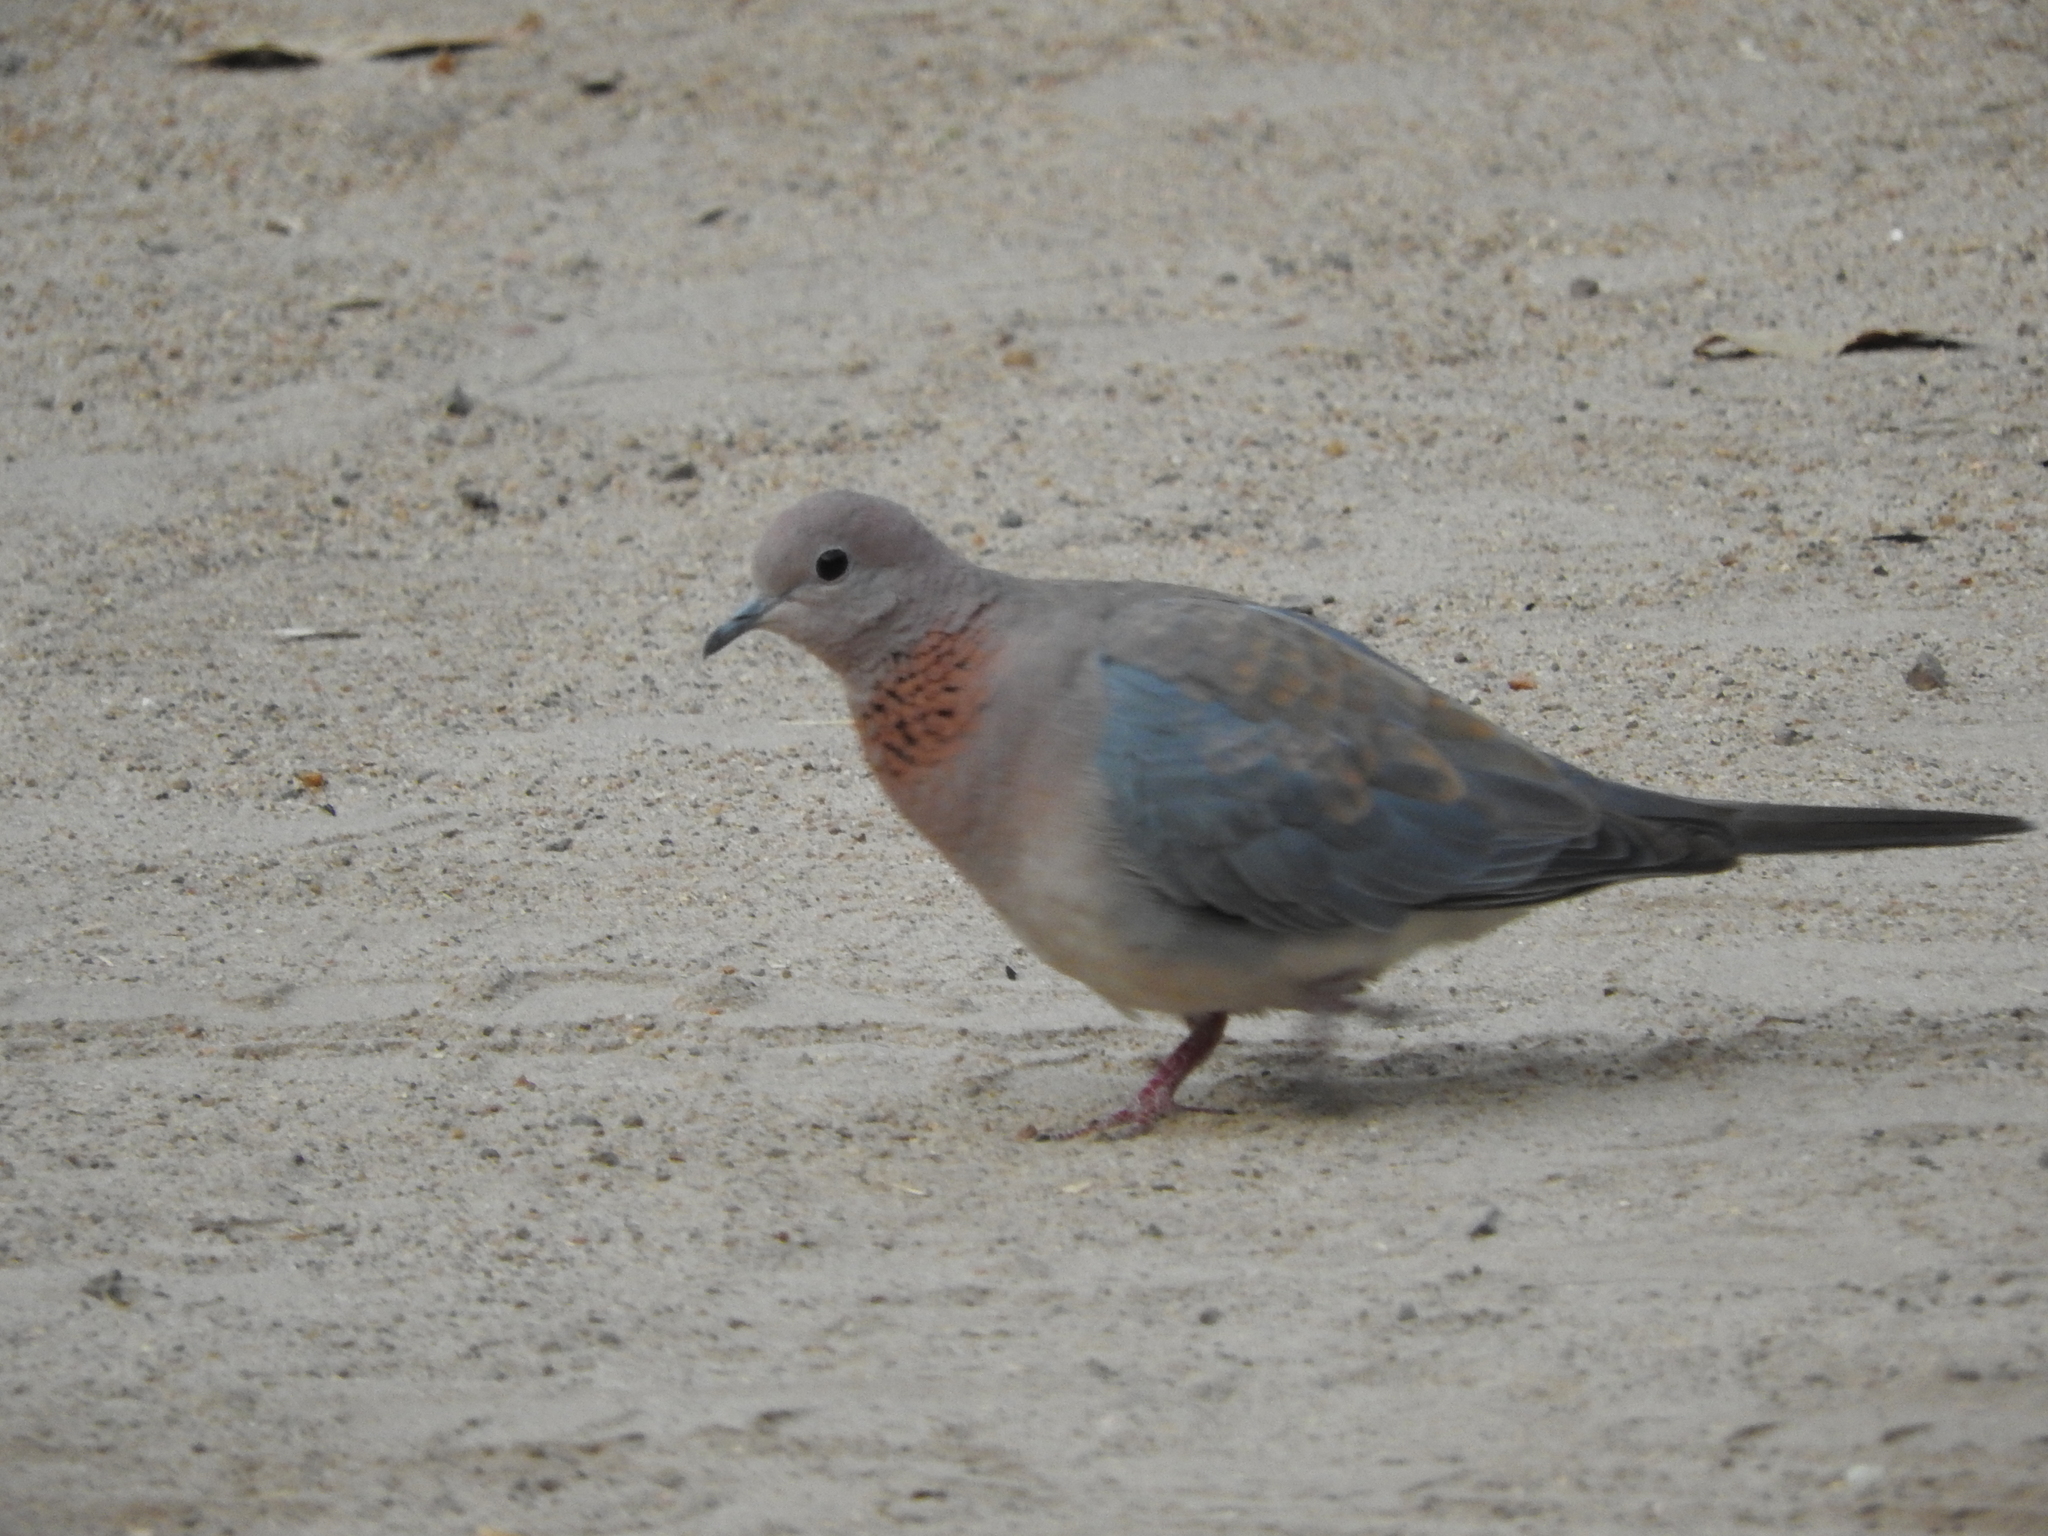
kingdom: Animalia
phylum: Chordata
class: Aves
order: Columbiformes
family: Columbidae
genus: Spilopelia
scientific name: Spilopelia senegalensis
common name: Laughing dove
